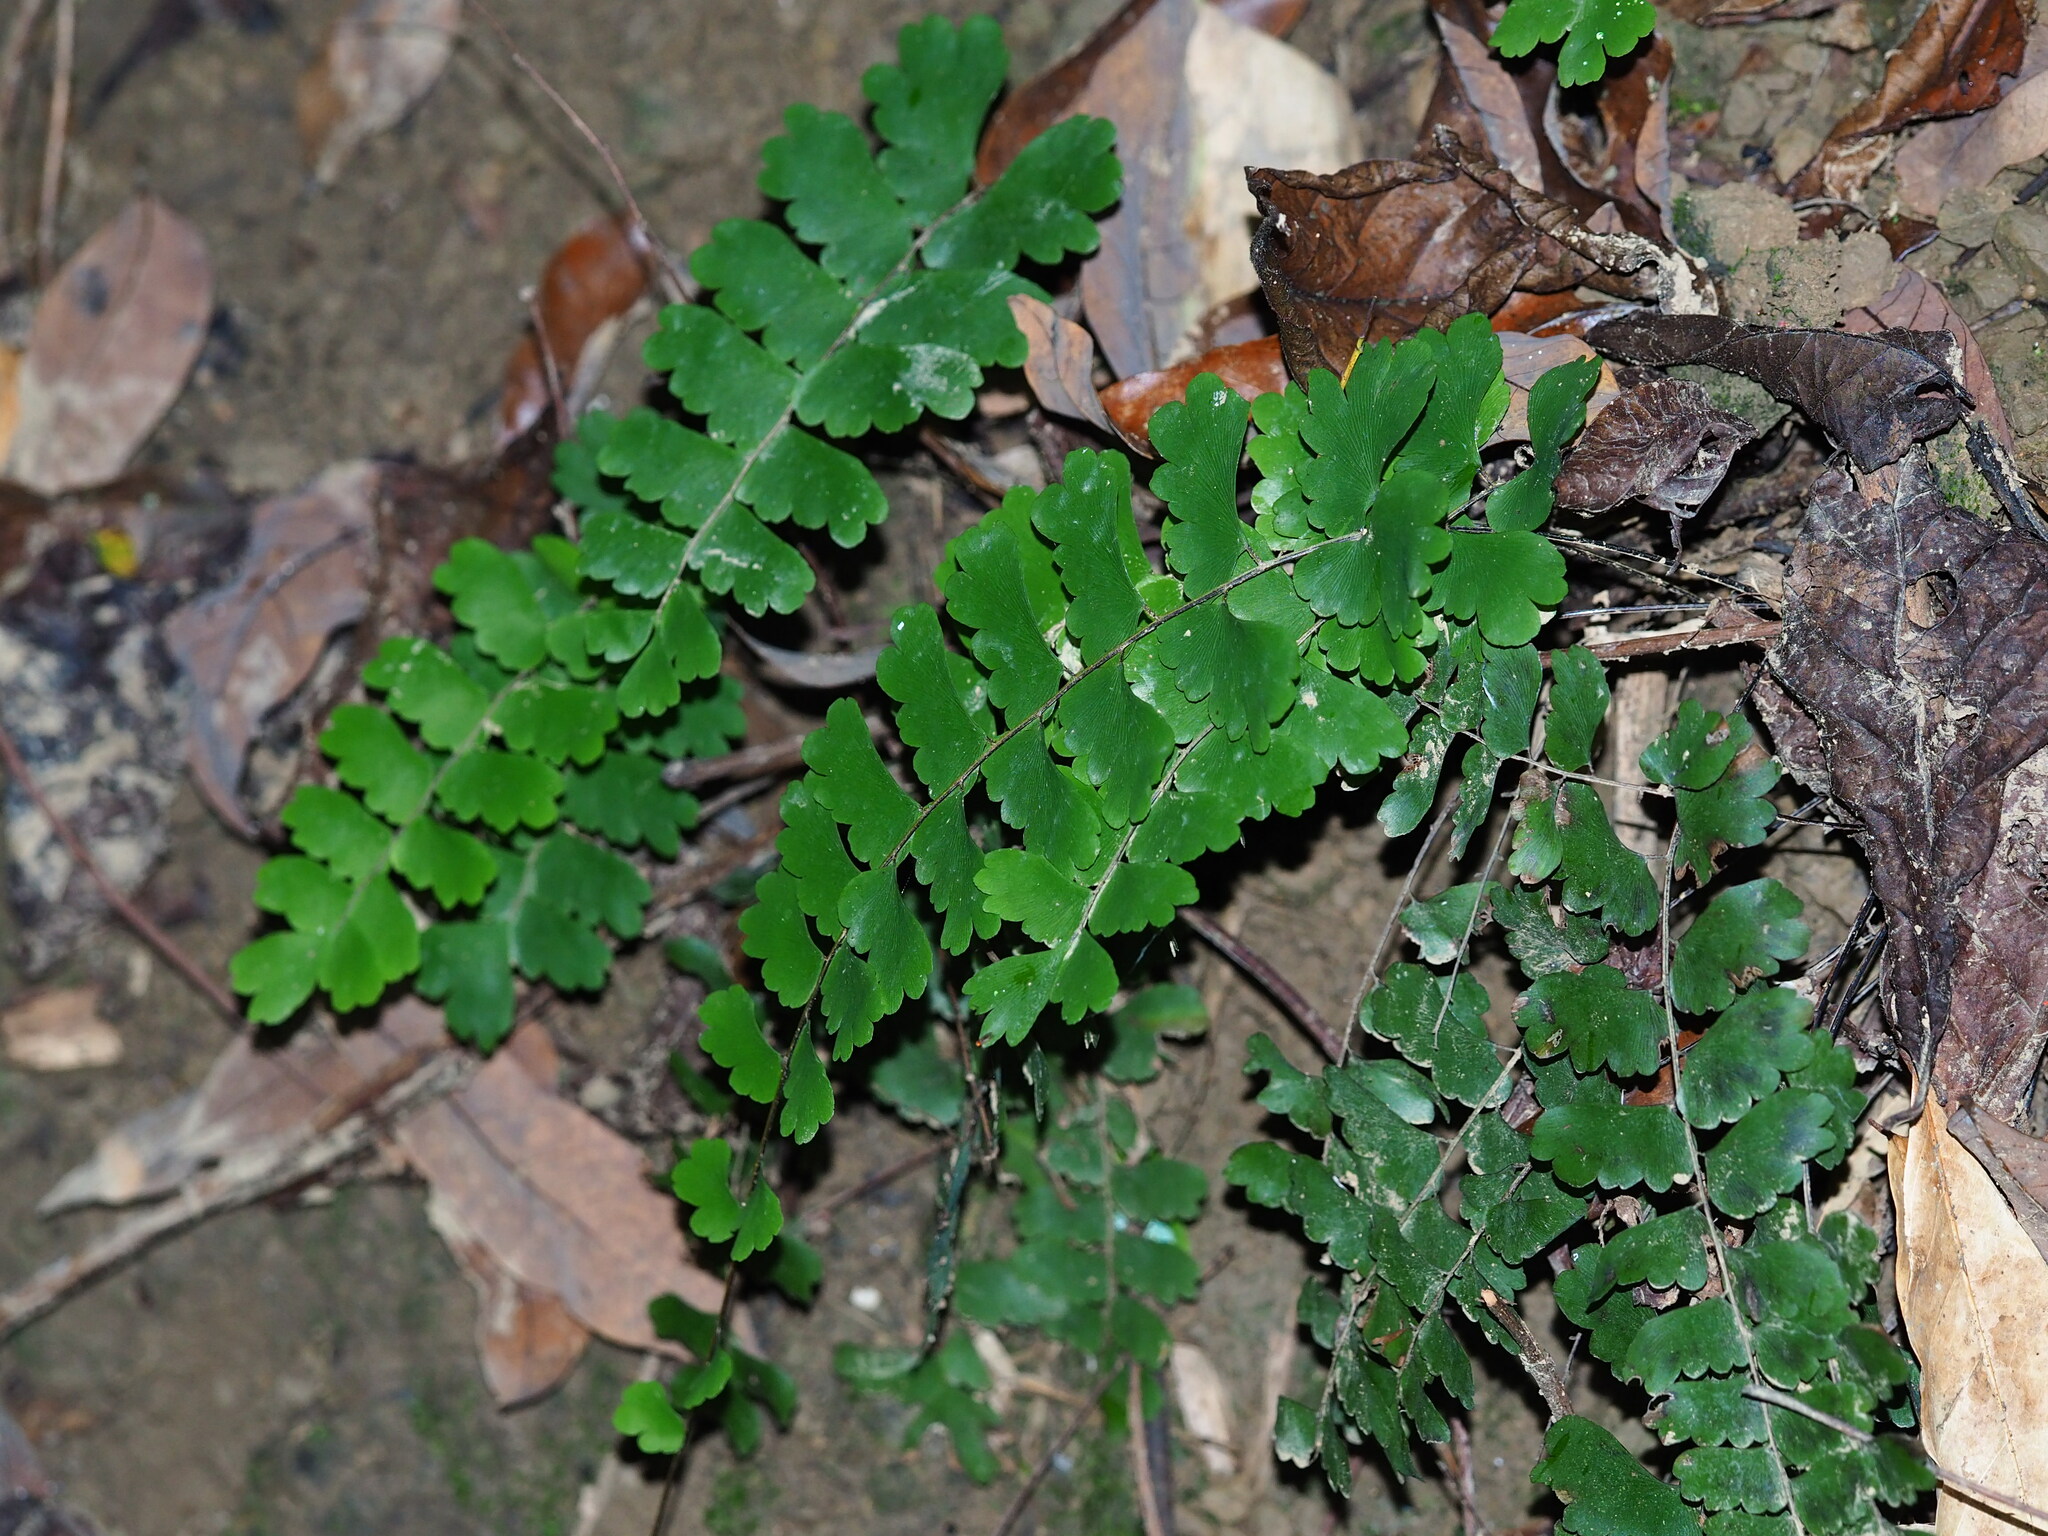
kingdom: Plantae
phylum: Tracheophyta
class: Polypodiopsida
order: Polypodiales
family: Pteridaceae
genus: Adiantum
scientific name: Adiantum philippense
